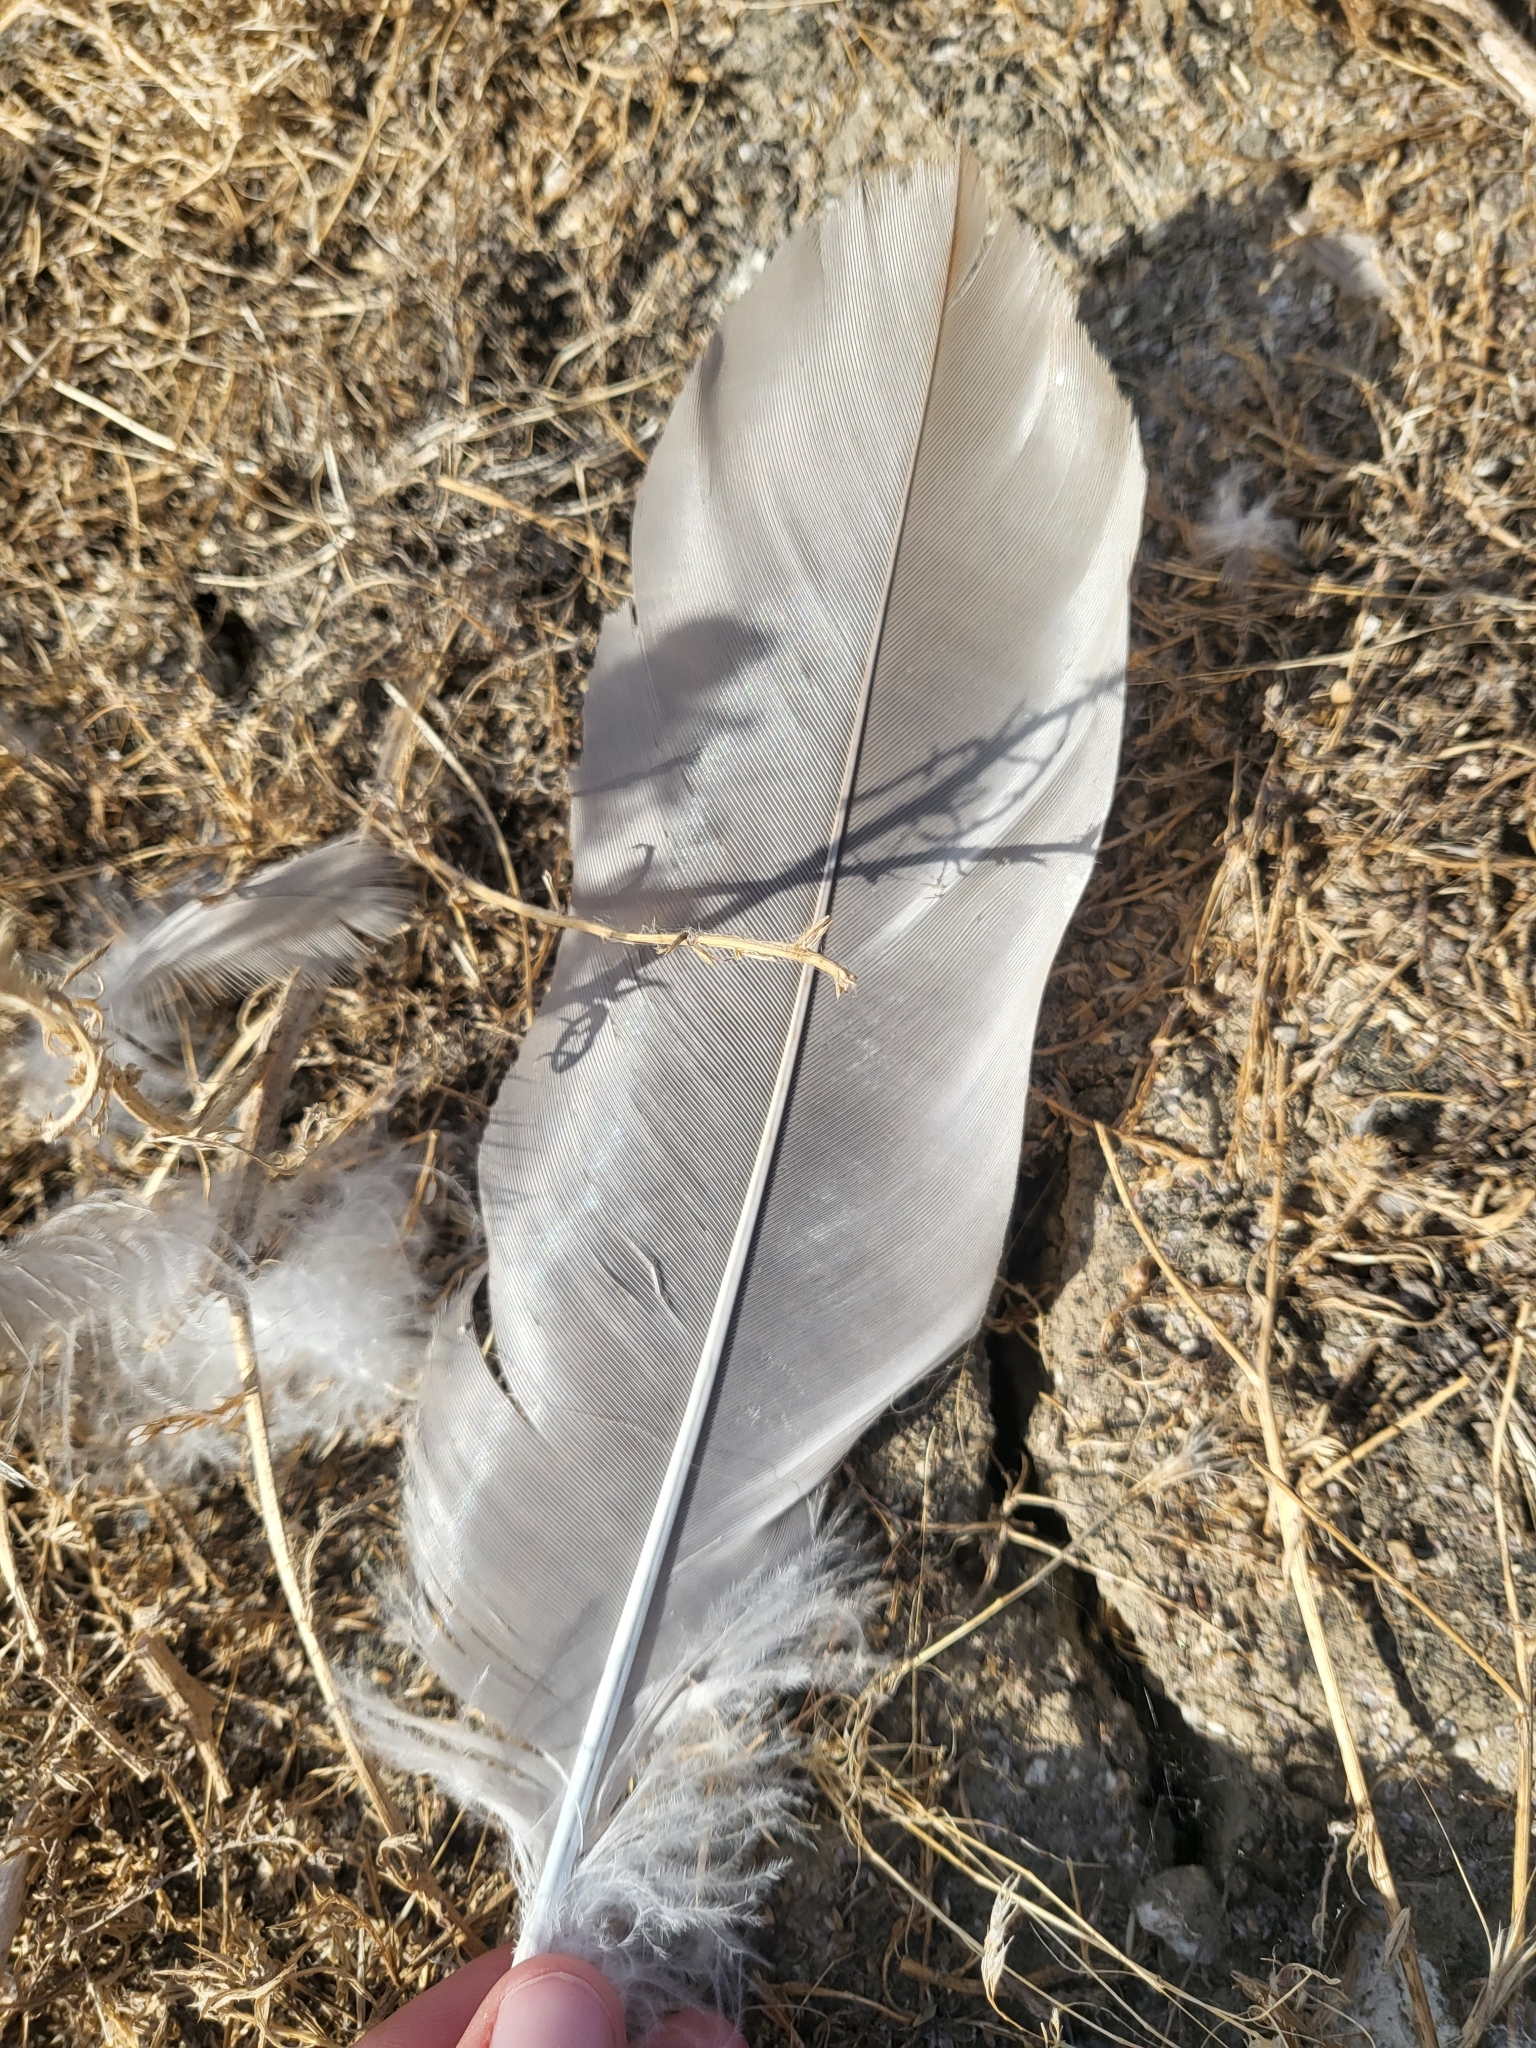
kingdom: Animalia
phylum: Chordata
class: Aves
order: Gruiformes
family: Gruidae
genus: Grus
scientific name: Grus canadensis
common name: Sandhill crane
